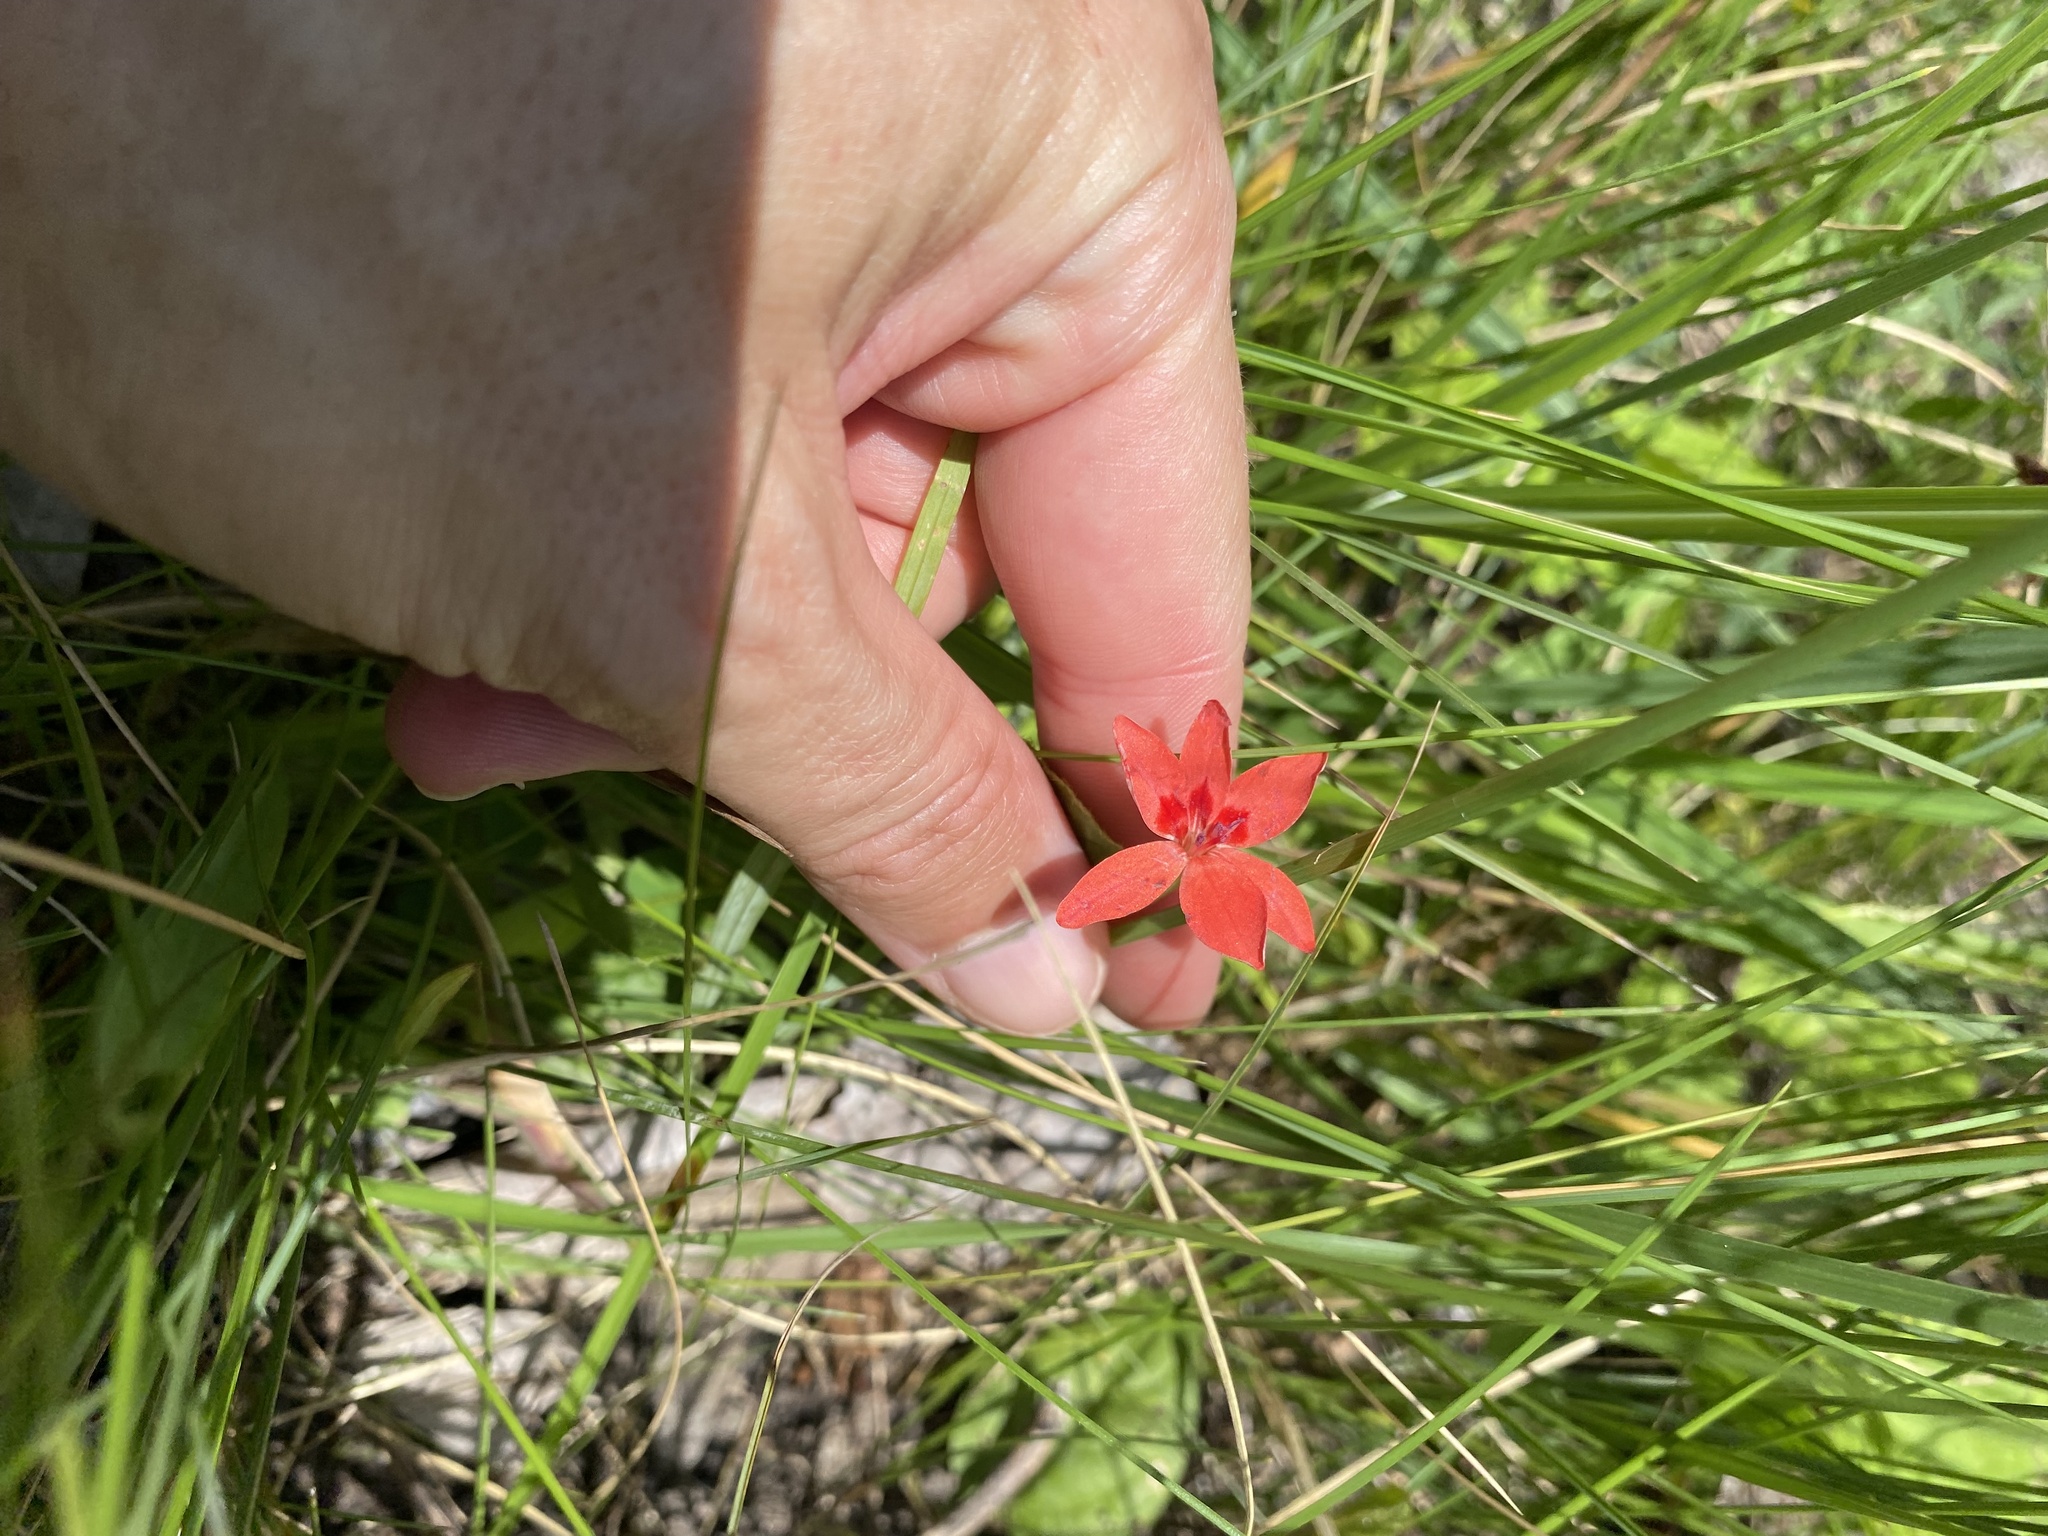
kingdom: Plantae
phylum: Tracheophyta
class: Liliopsida
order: Asparagales
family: Iridaceae
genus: Freesia
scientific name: Freesia laxa
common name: False freesia
